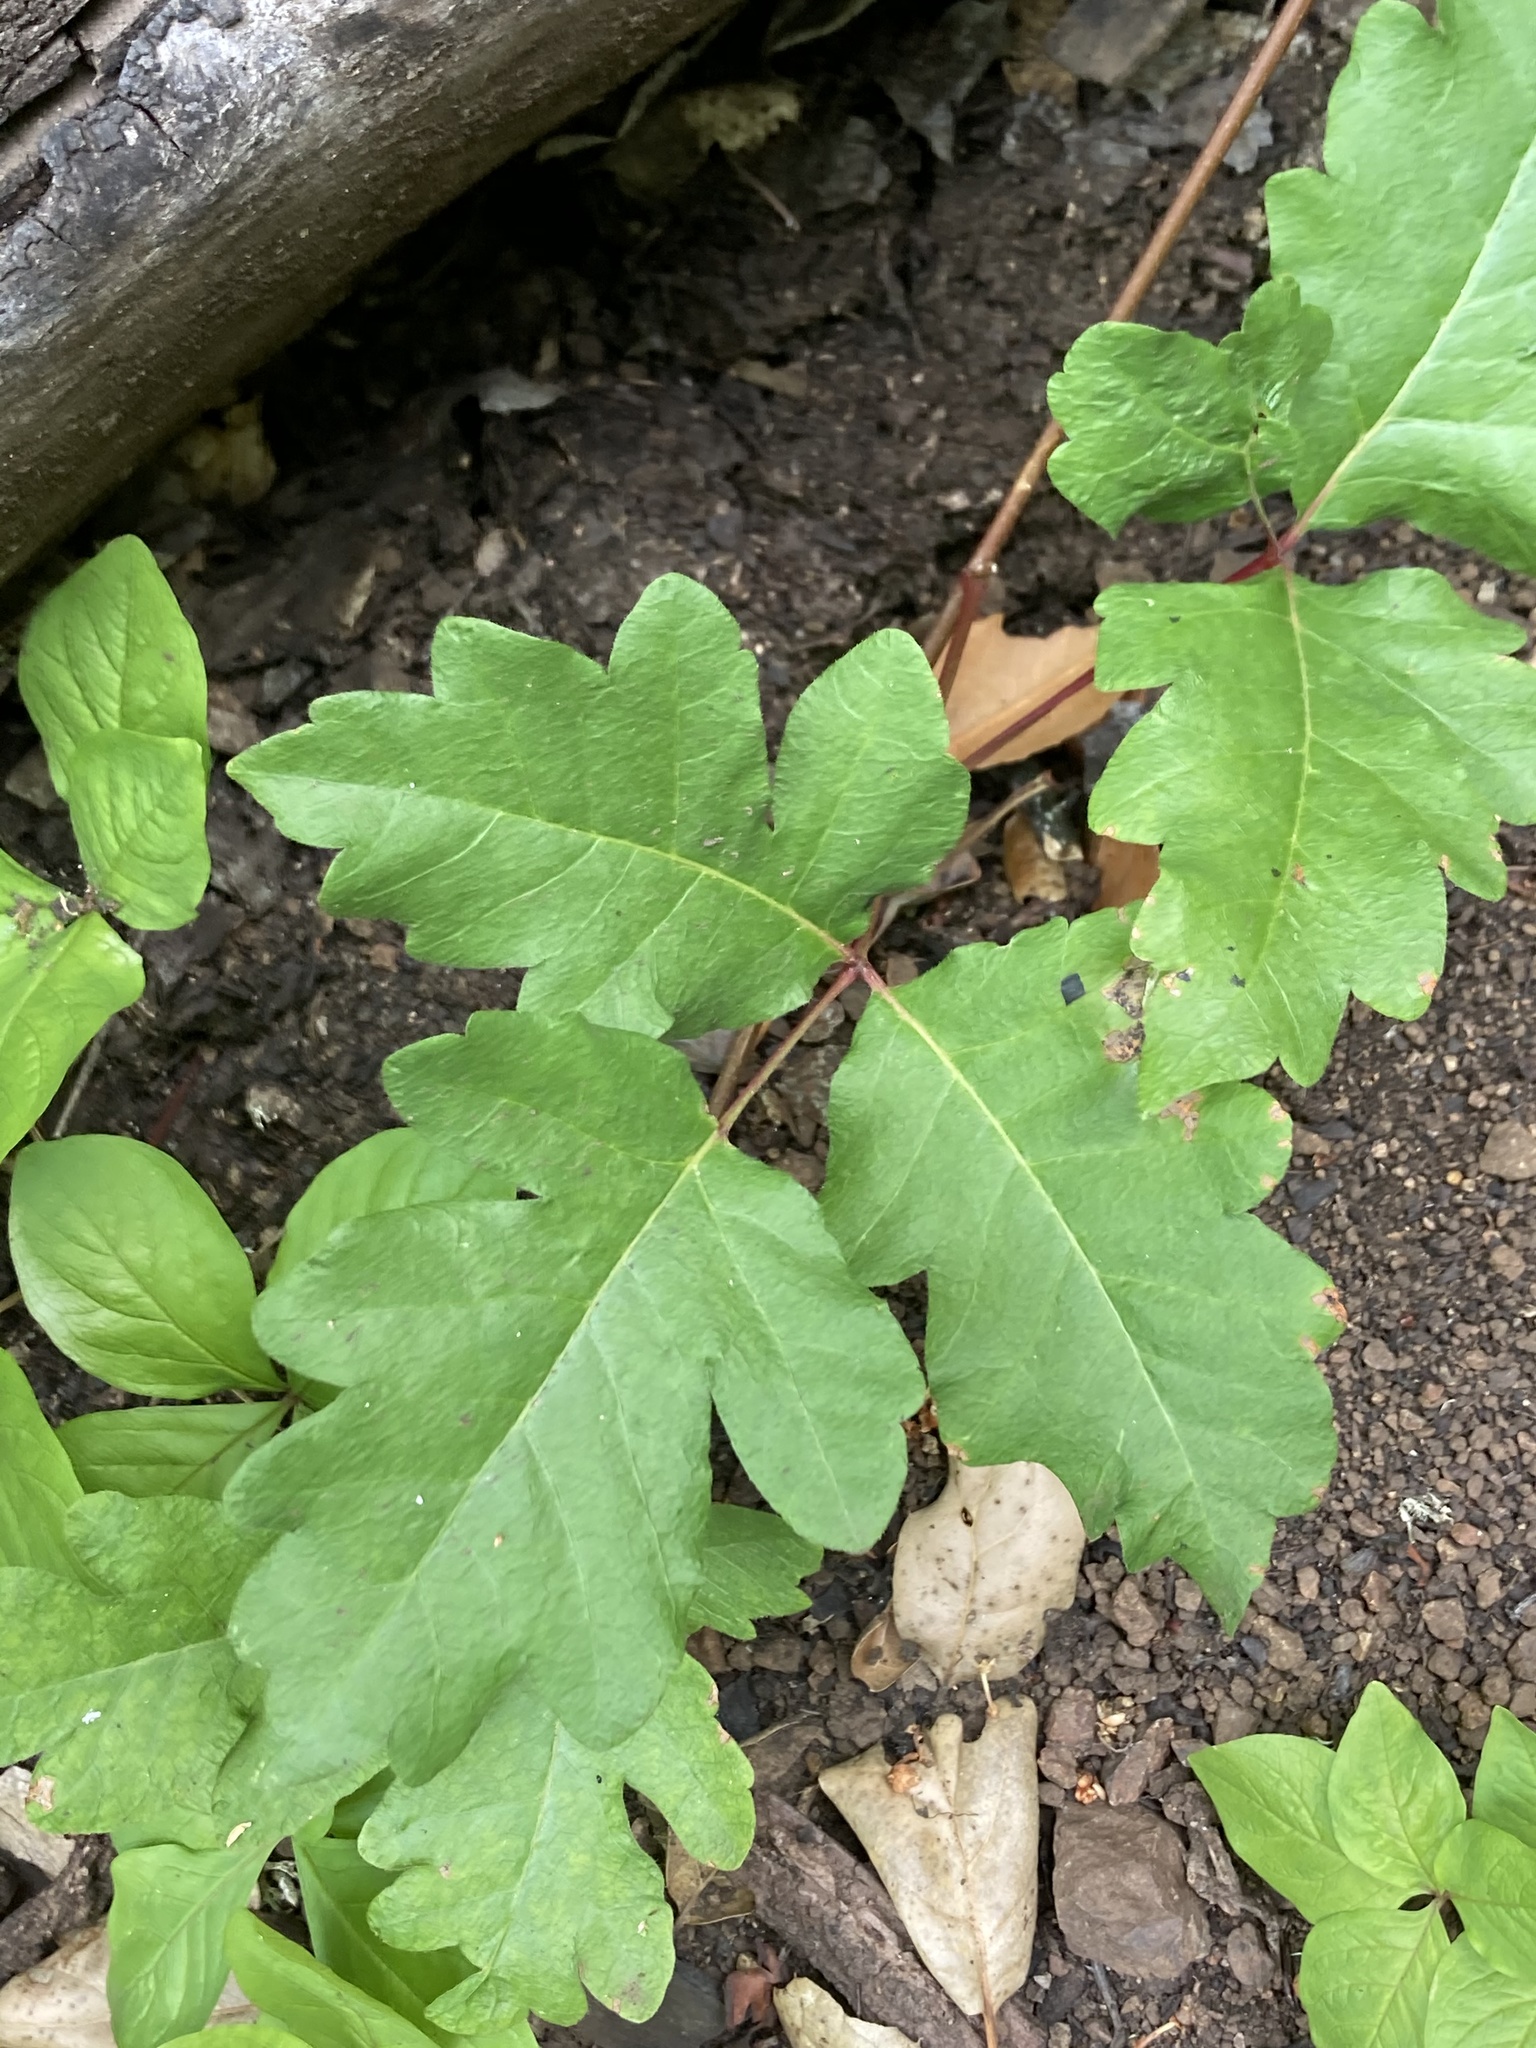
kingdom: Plantae
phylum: Tracheophyta
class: Magnoliopsida
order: Sapindales
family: Anacardiaceae
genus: Toxicodendron
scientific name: Toxicodendron diversilobum
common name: Pacific poison-oak
